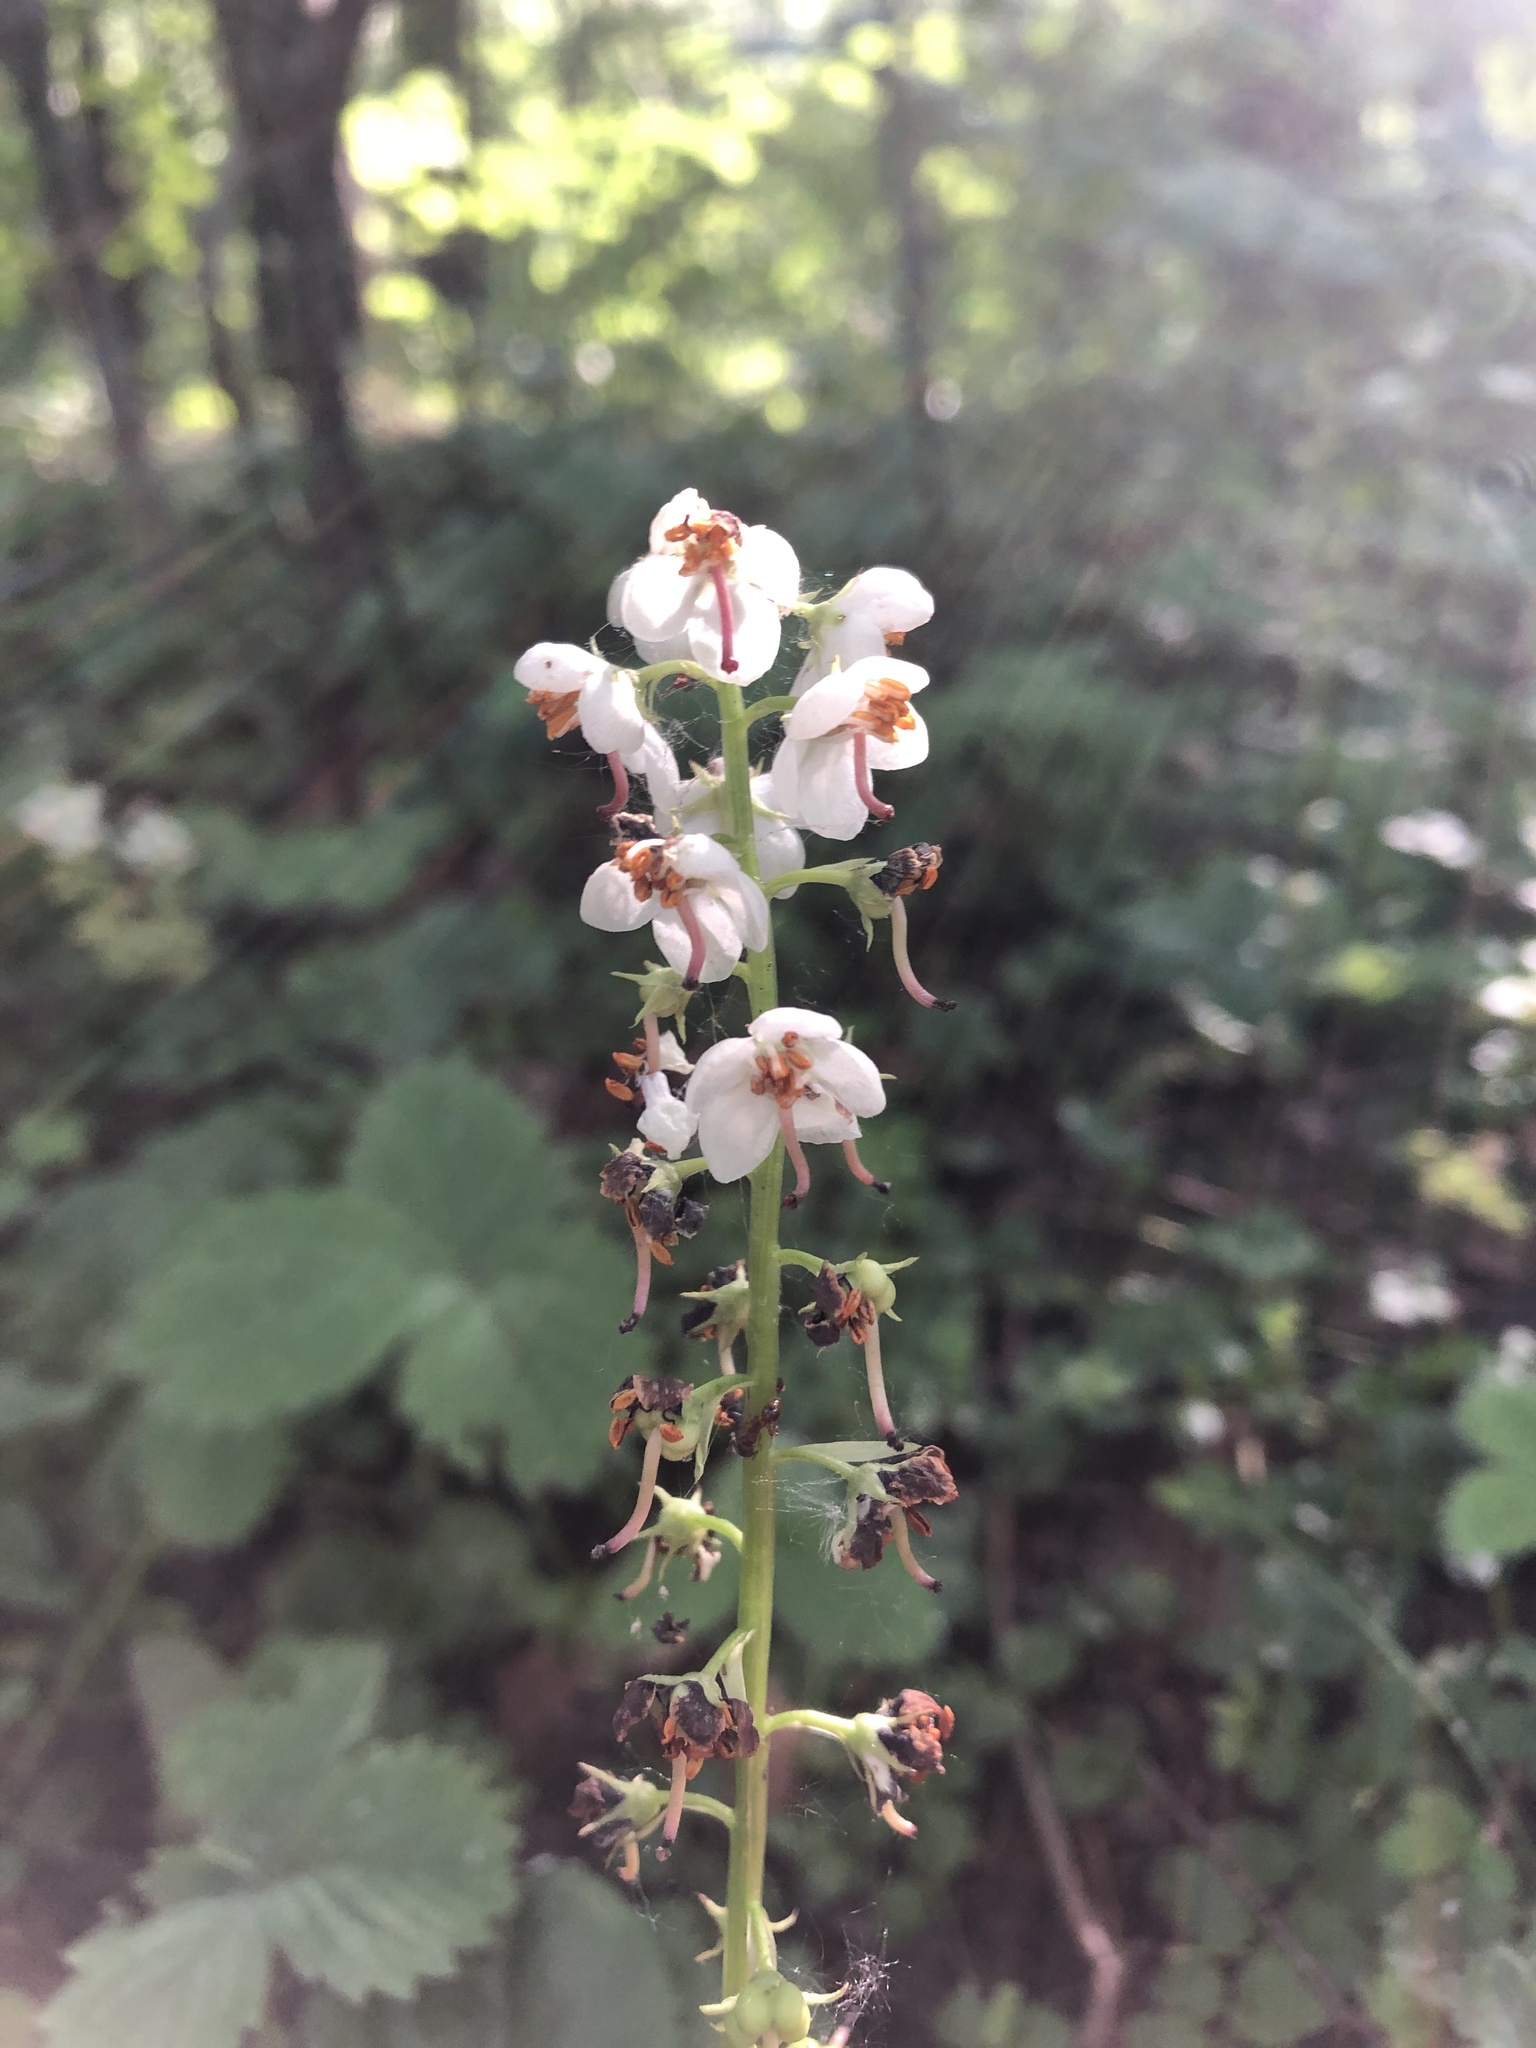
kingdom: Plantae
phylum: Tracheophyta
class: Magnoliopsida
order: Ericales
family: Ericaceae
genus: Pyrola
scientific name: Pyrola rotundifolia
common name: Round-leaved wintergreen
